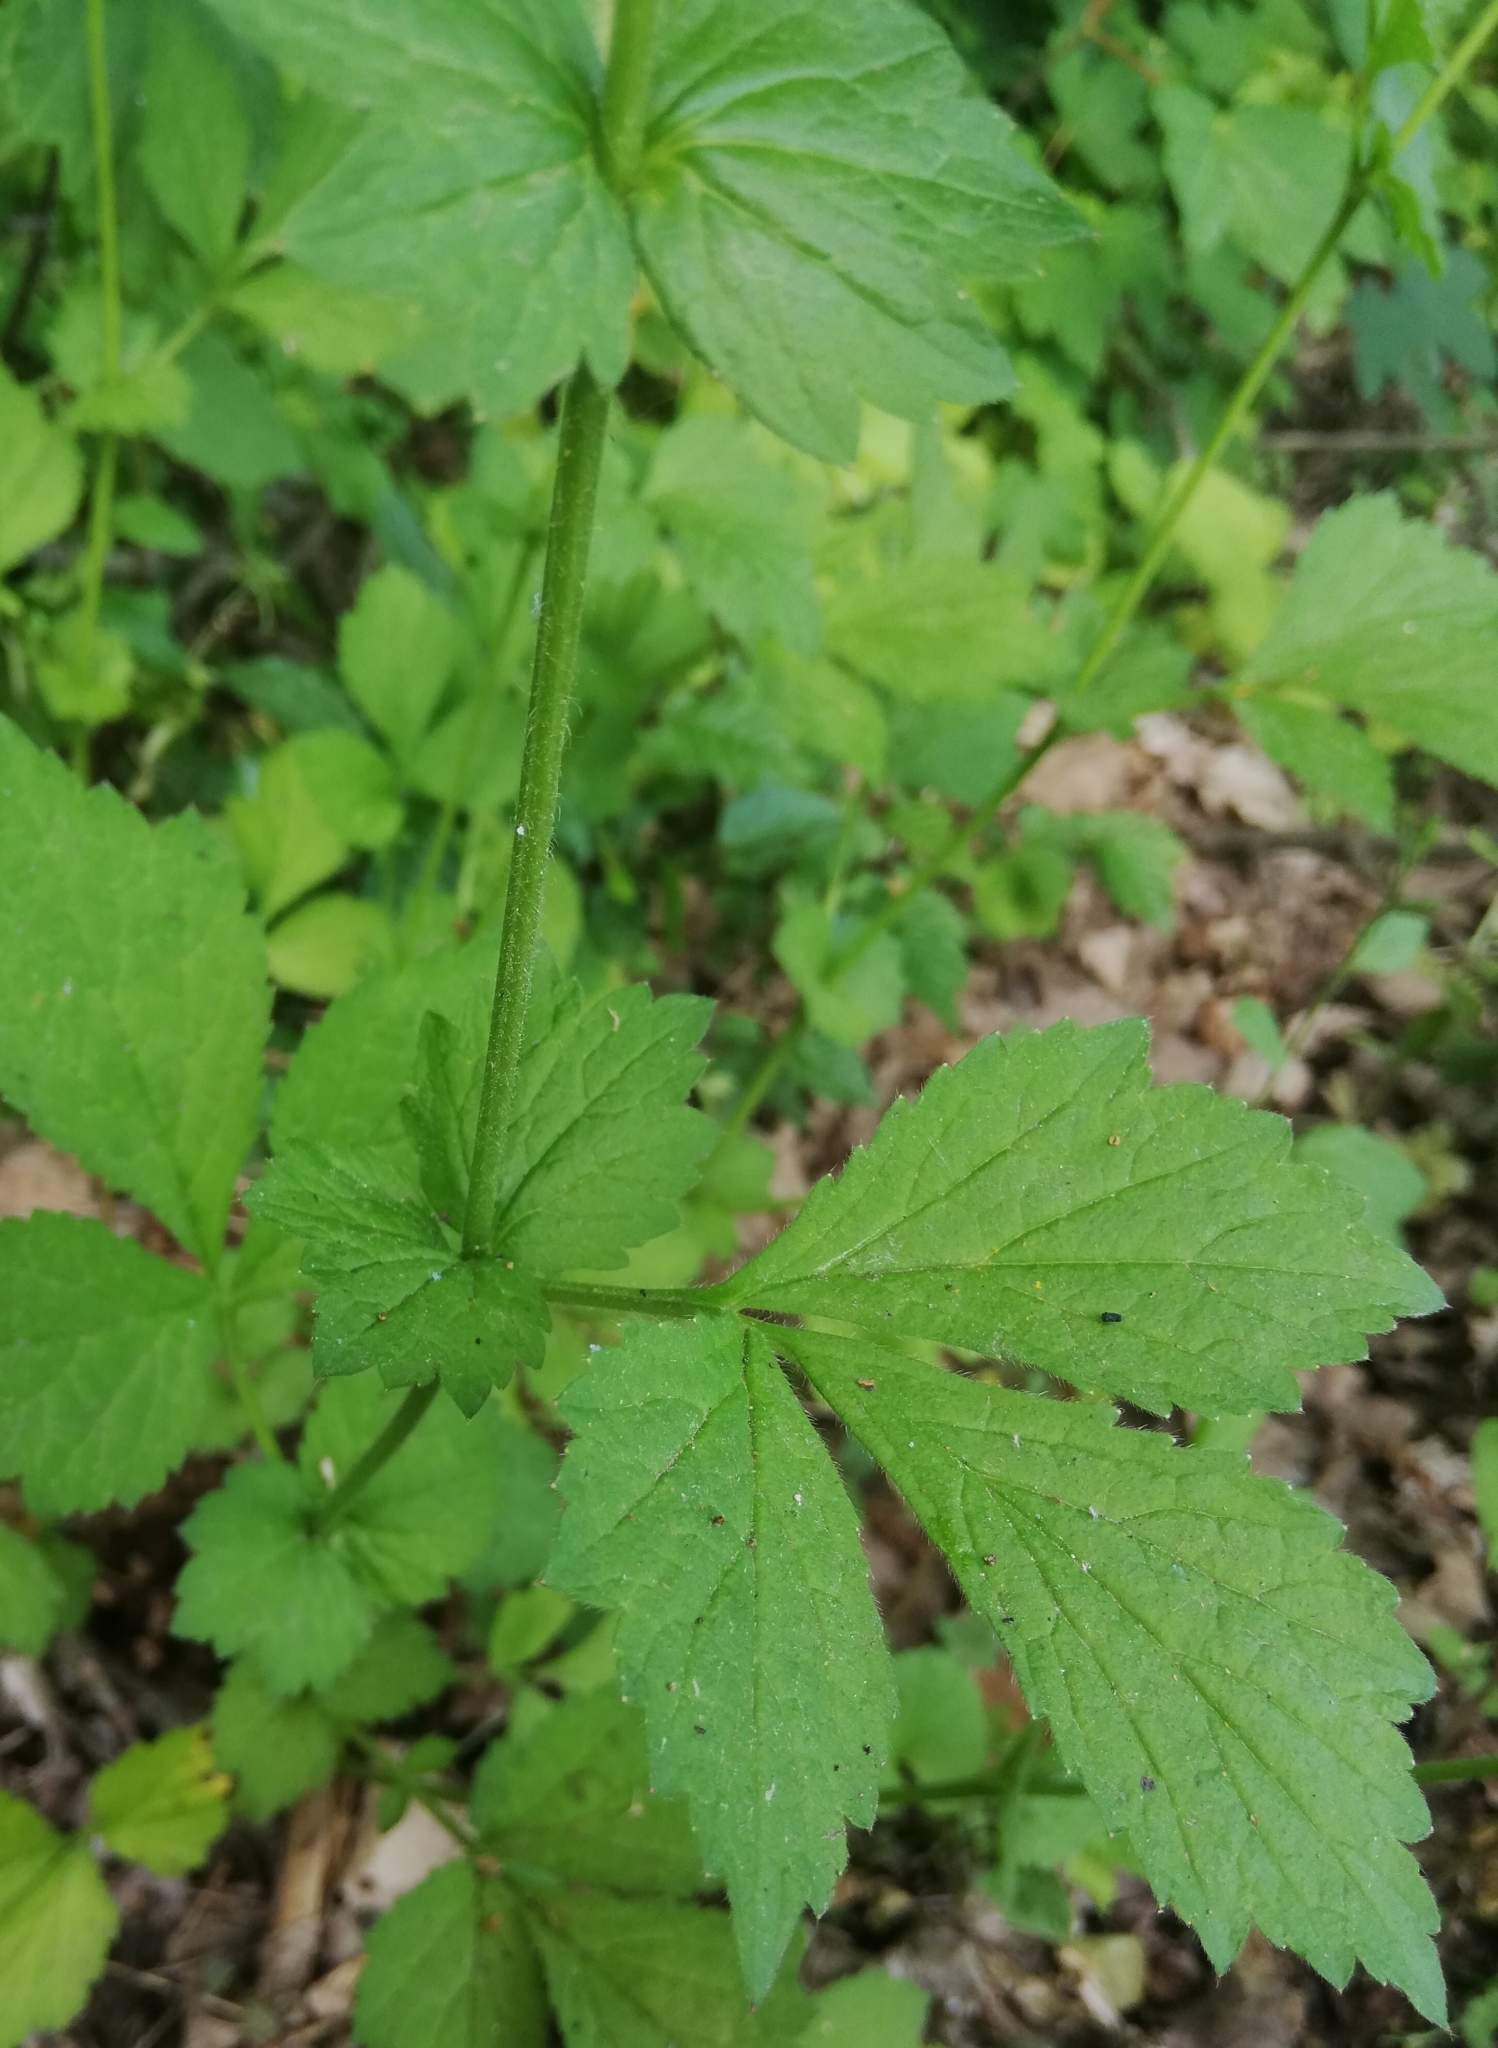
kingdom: Plantae
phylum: Tracheophyta
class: Magnoliopsida
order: Rosales
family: Rosaceae
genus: Geum
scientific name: Geum urbanum
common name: Wood avens
